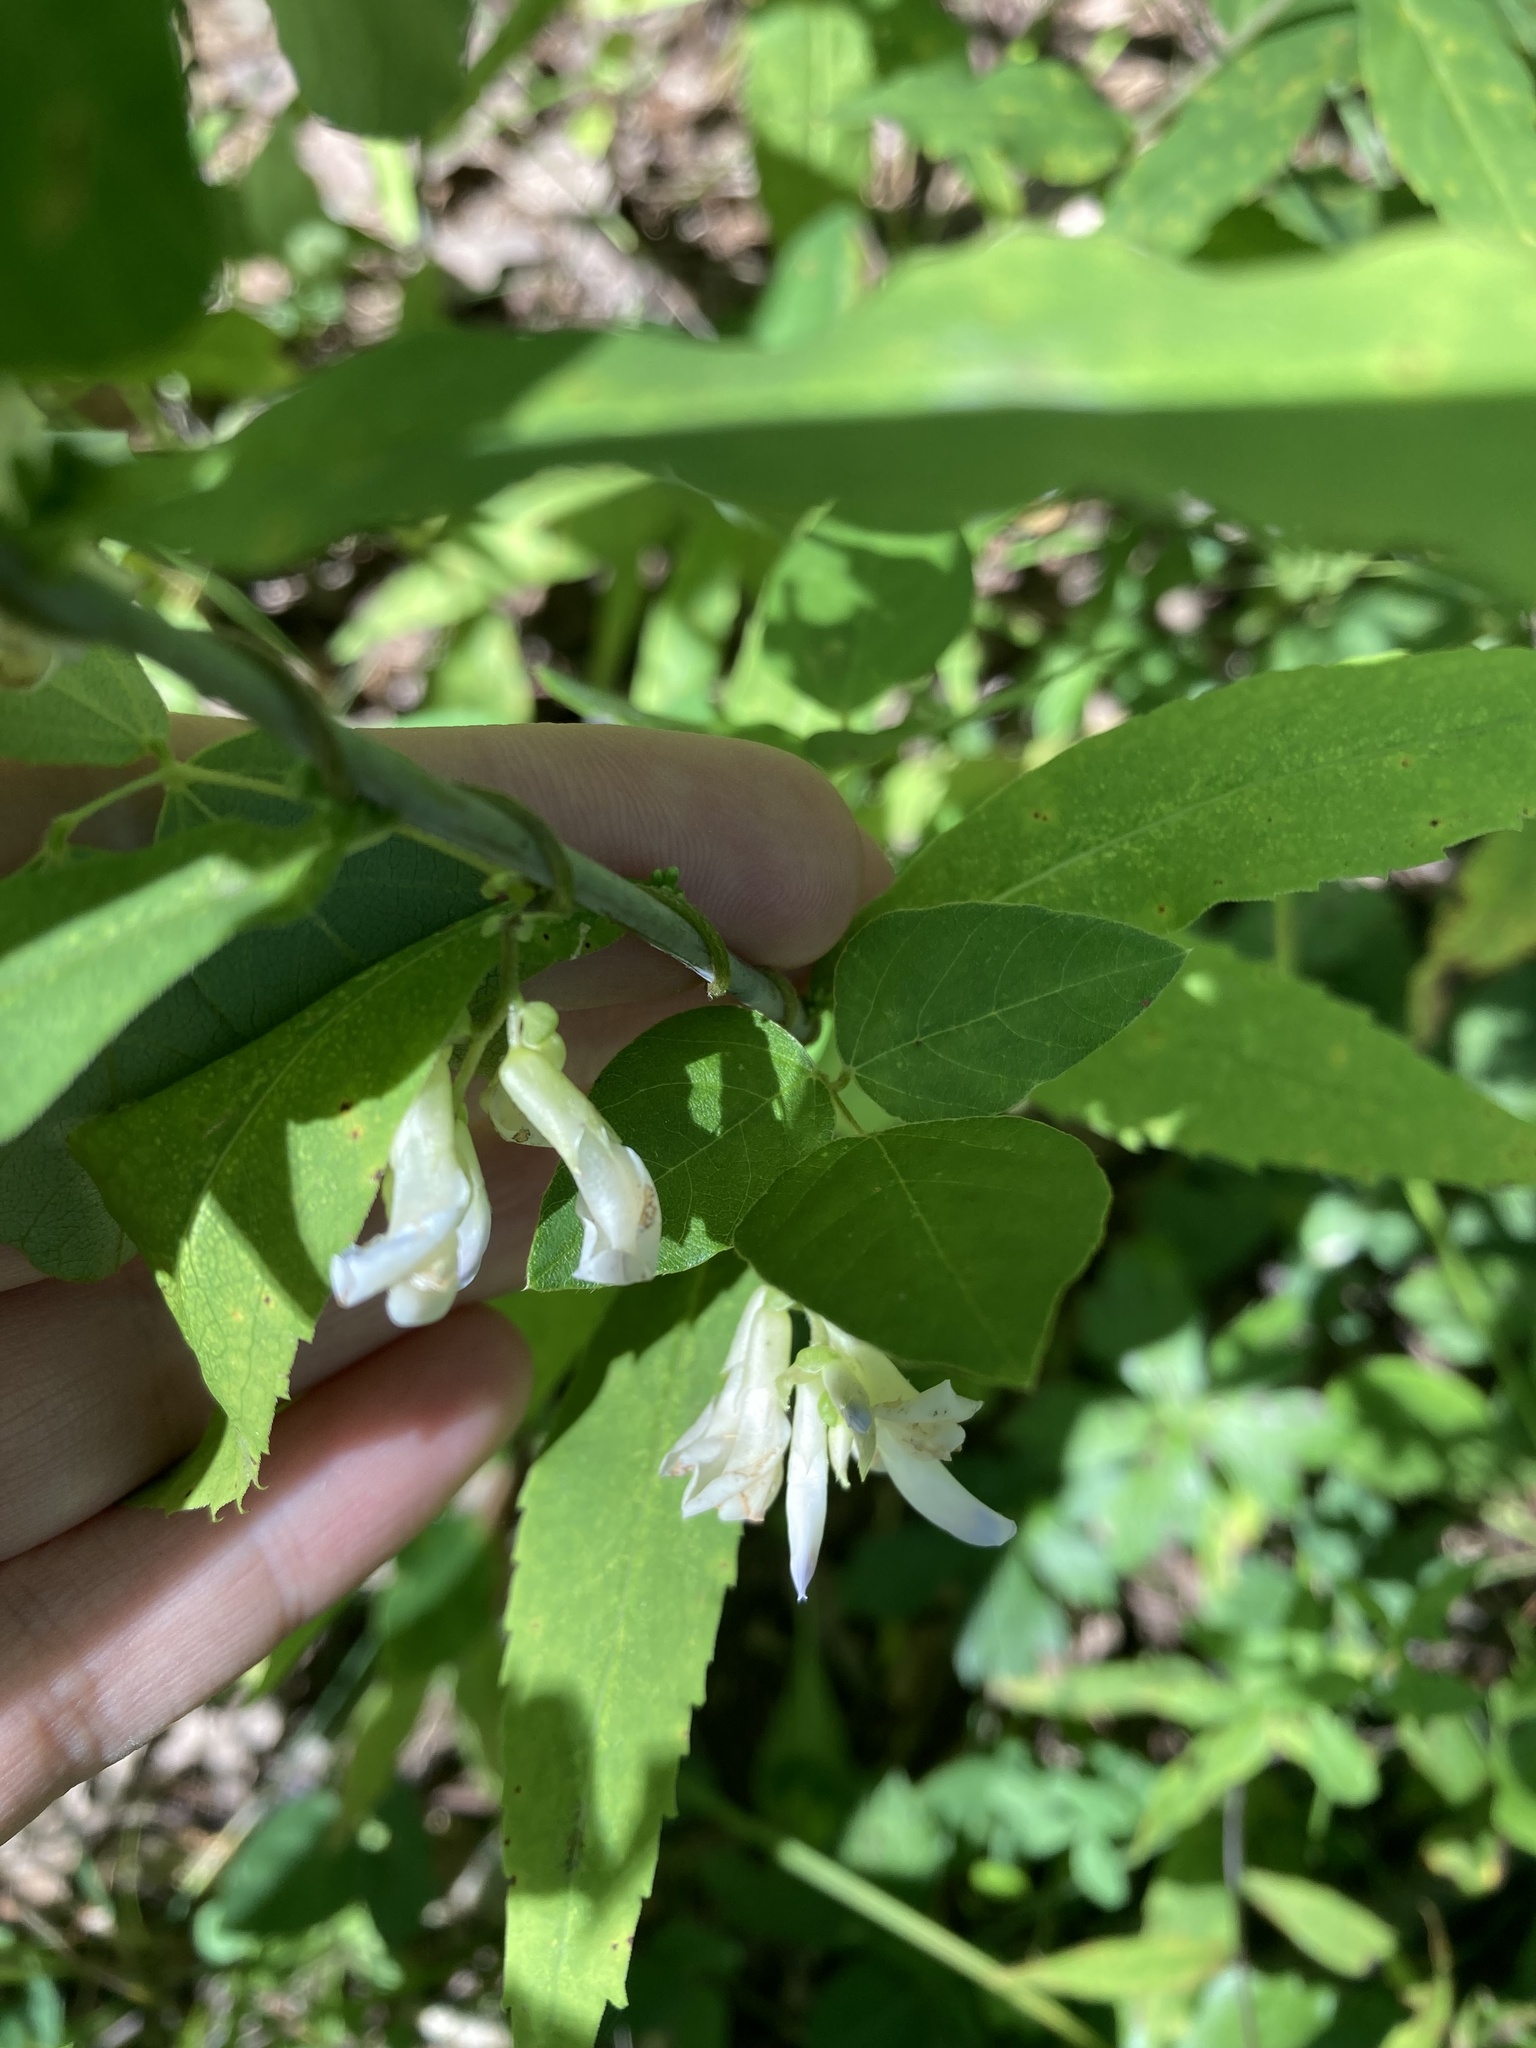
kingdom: Plantae
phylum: Tracheophyta
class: Magnoliopsida
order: Fabales
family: Fabaceae
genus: Amphicarpaea
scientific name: Amphicarpaea bracteata
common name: American hog peanut
